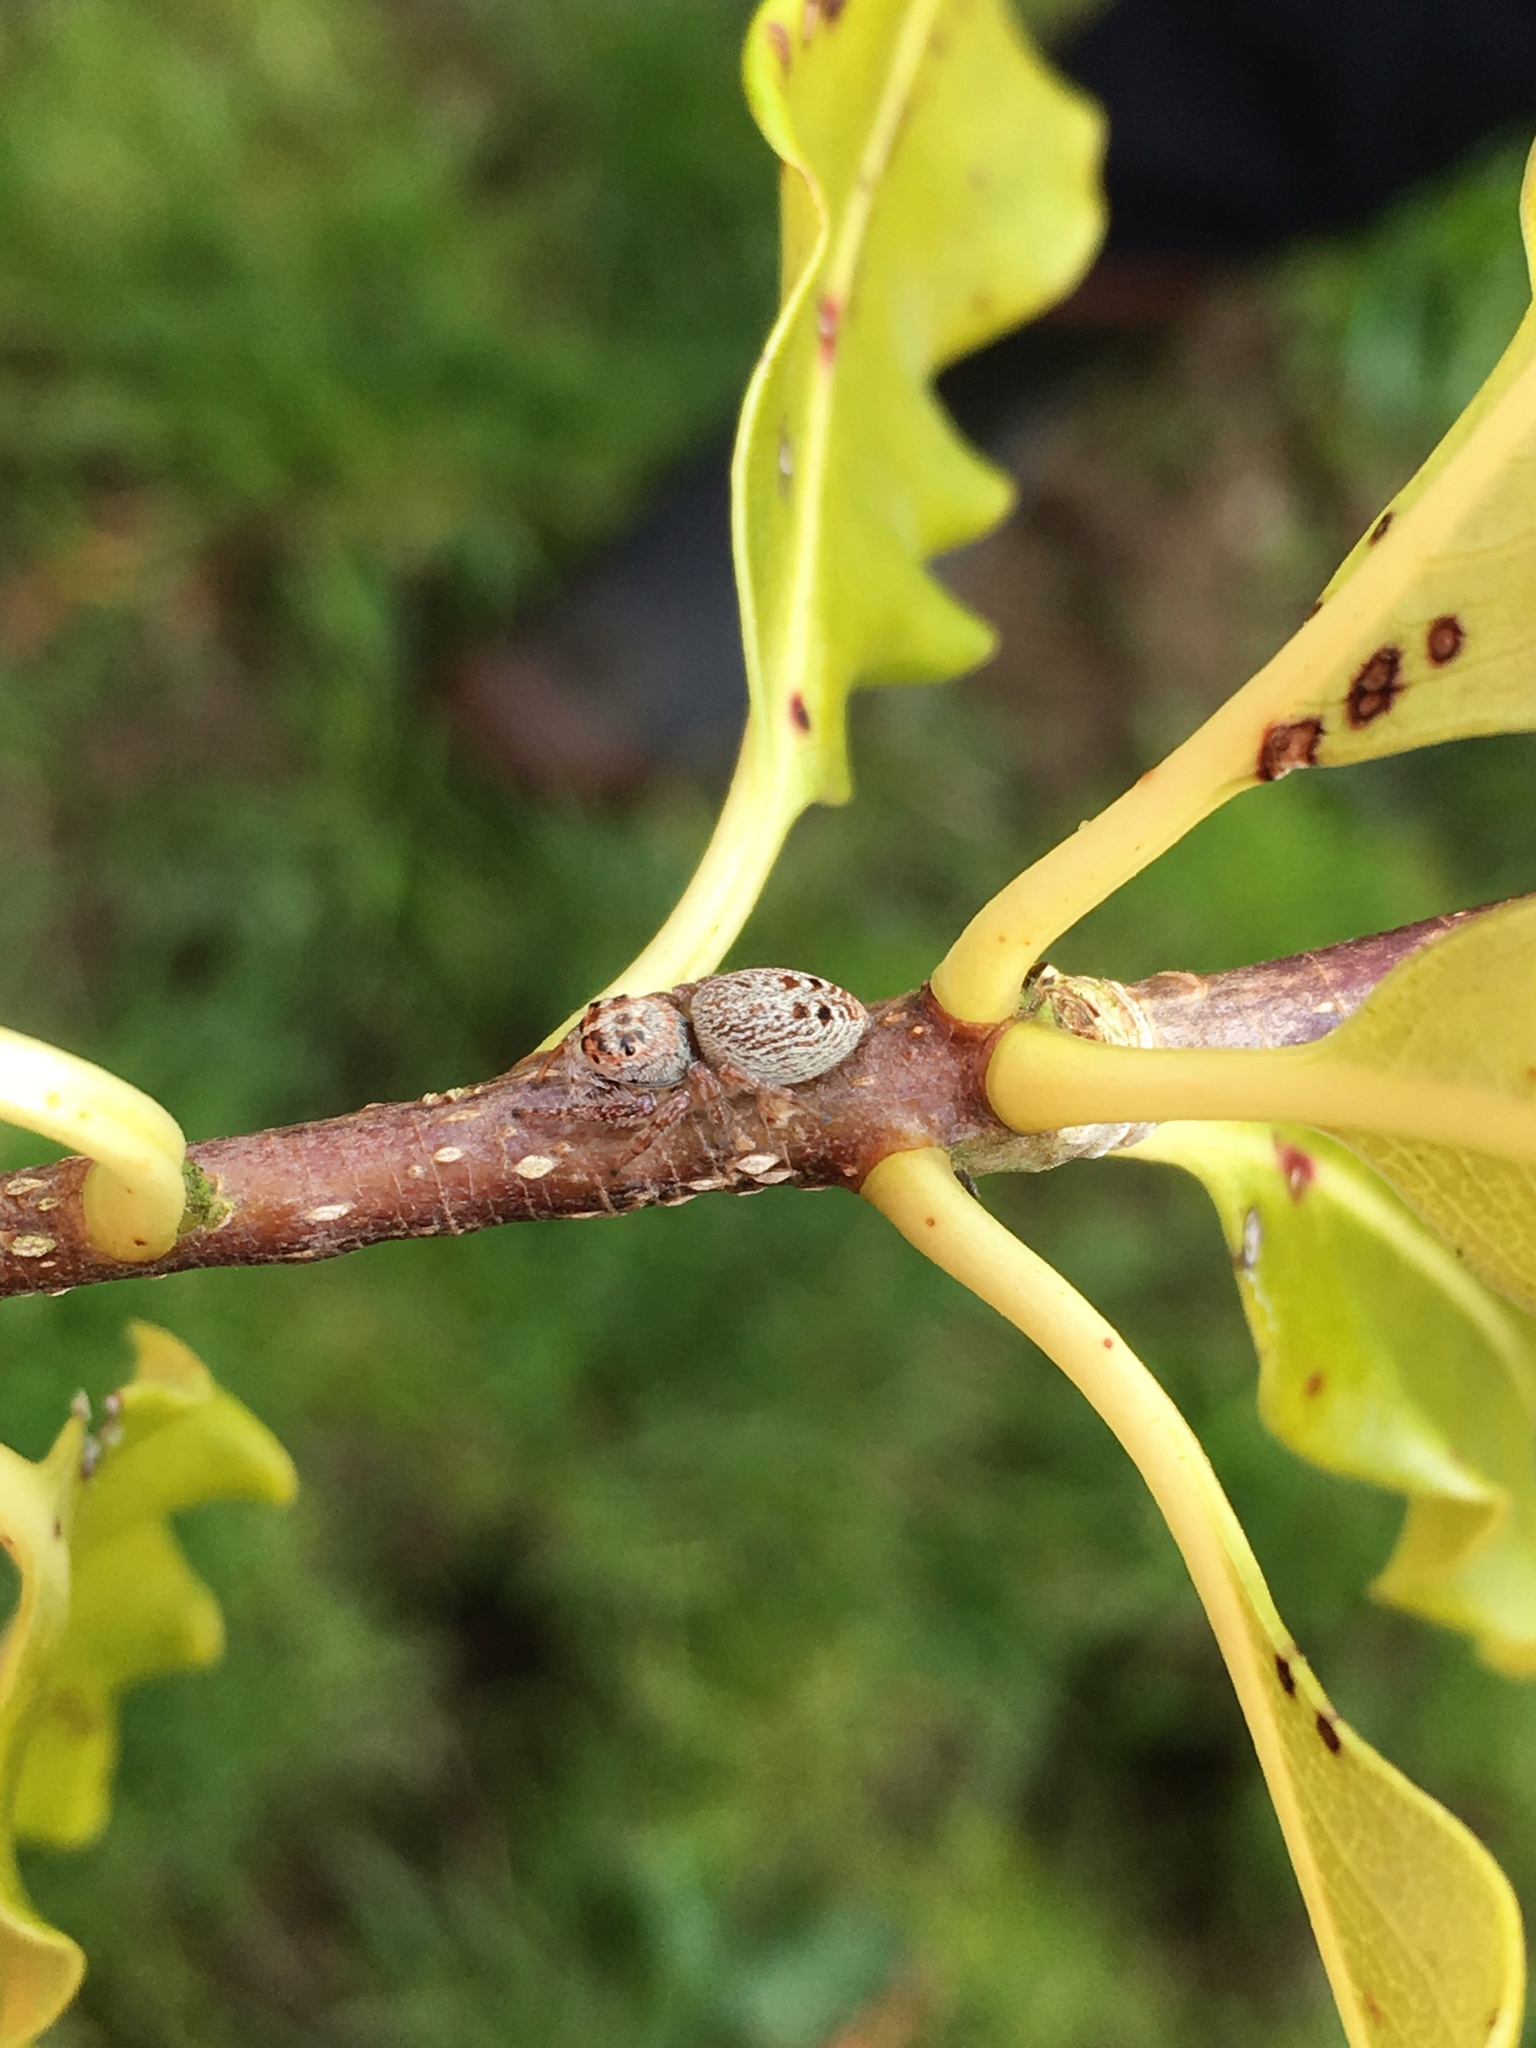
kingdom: Animalia
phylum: Arthropoda
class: Arachnida
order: Araneae
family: Salticidae
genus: Opisthoncus
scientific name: Opisthoncus polyphemus
